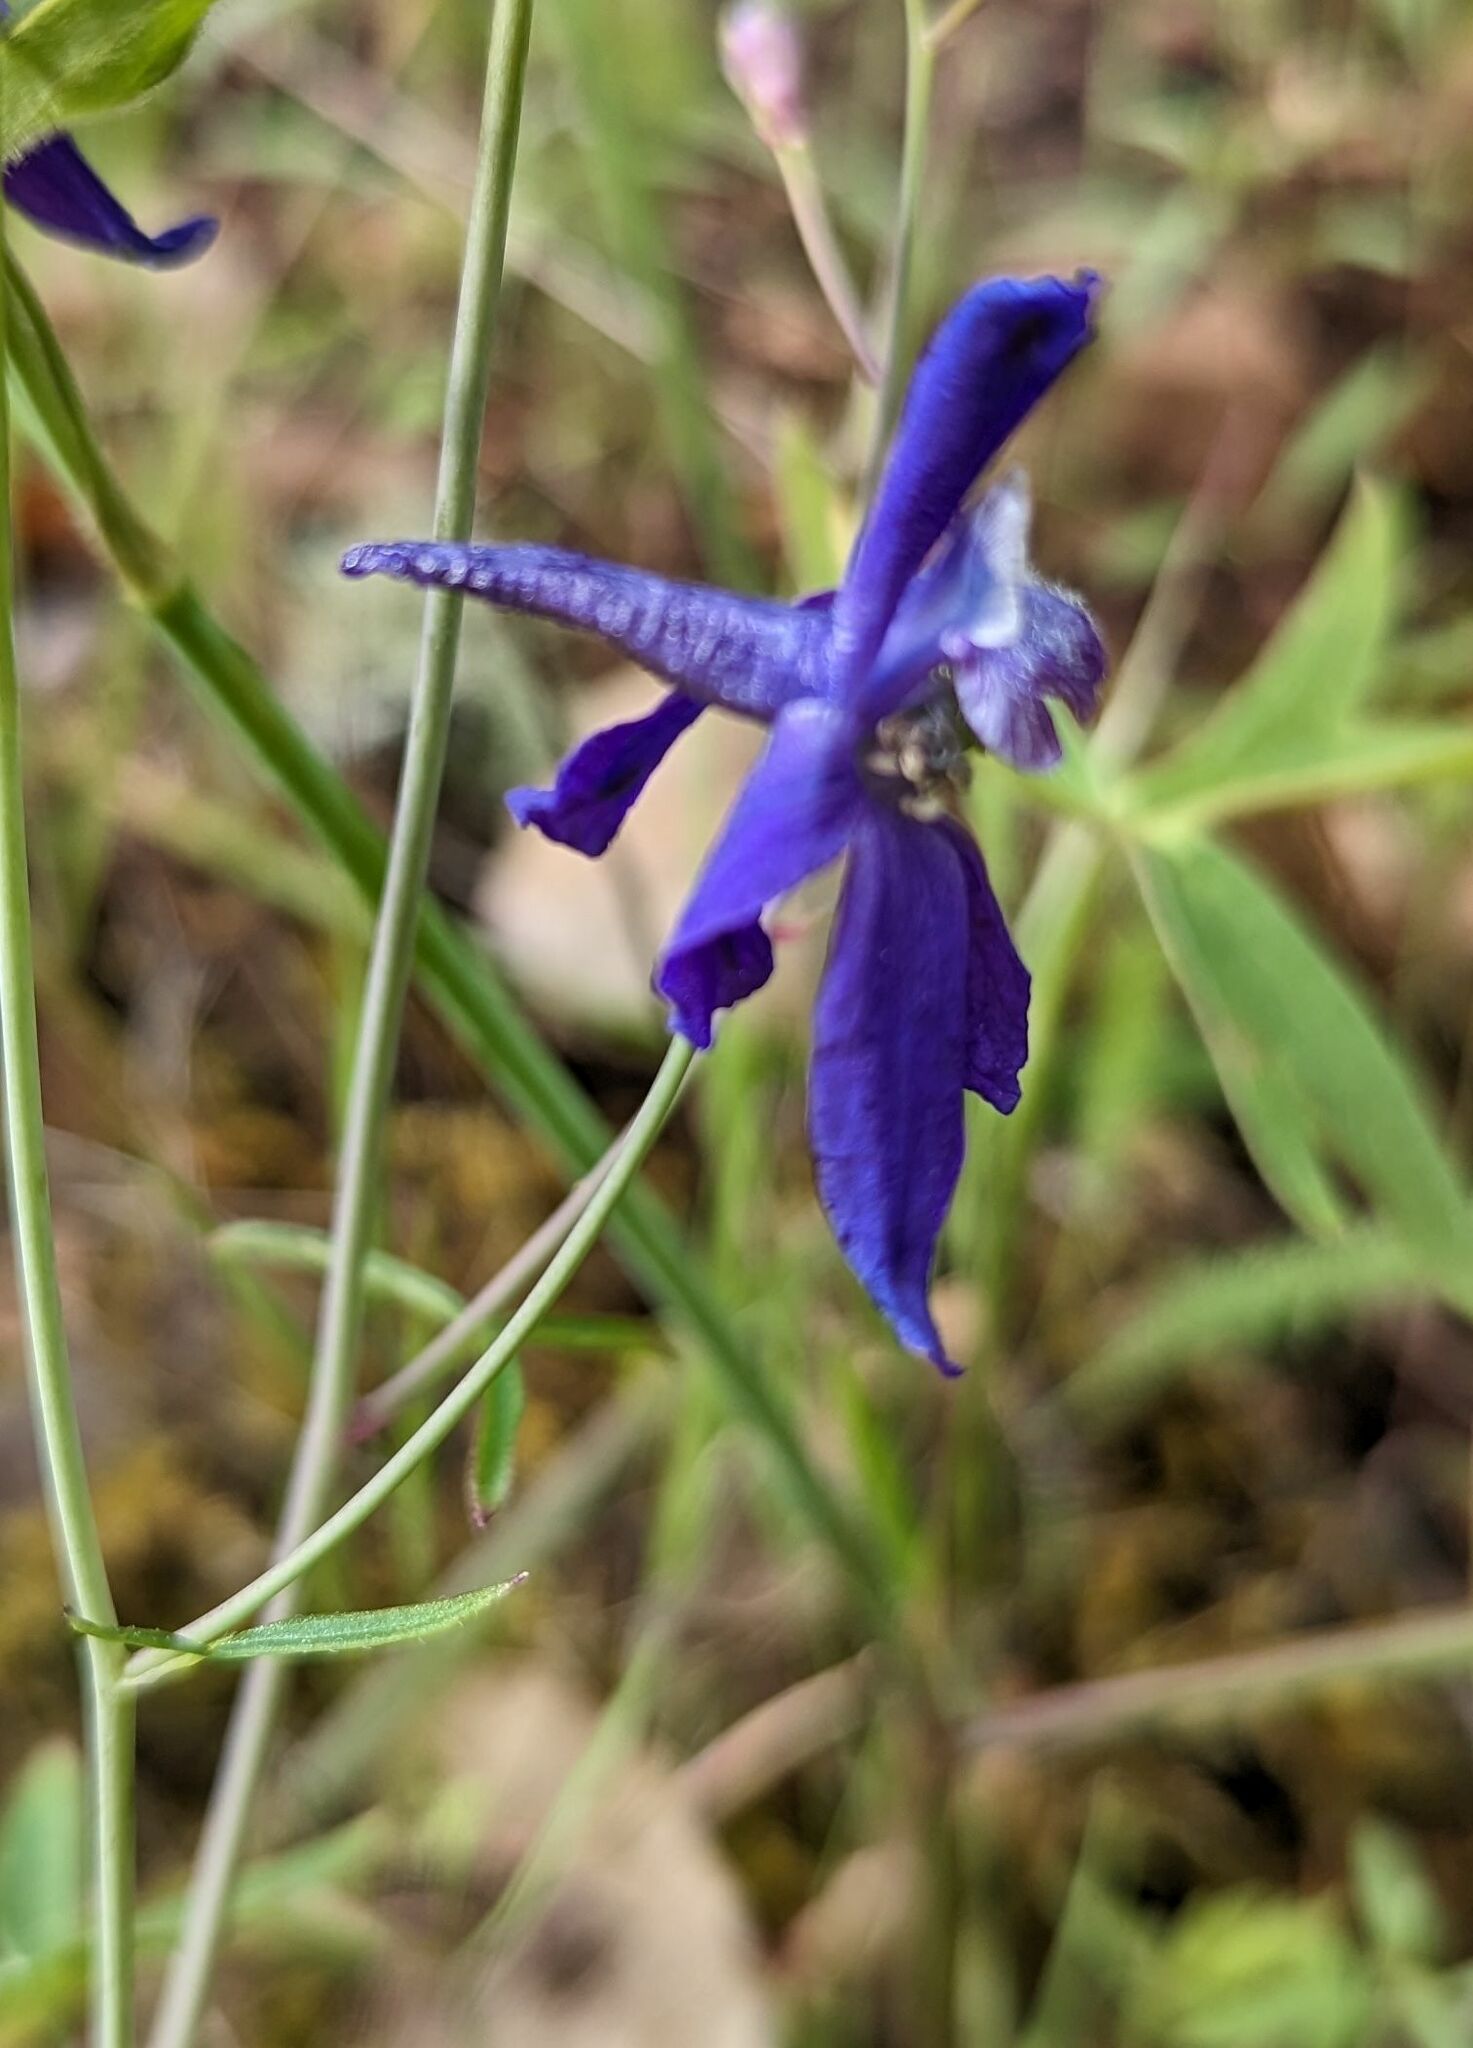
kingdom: Plantae
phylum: Tracheophyta
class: Magnoliopsida
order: Ranunculales
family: Ranunculaceae
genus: Delphinium
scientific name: Delphinium patens
